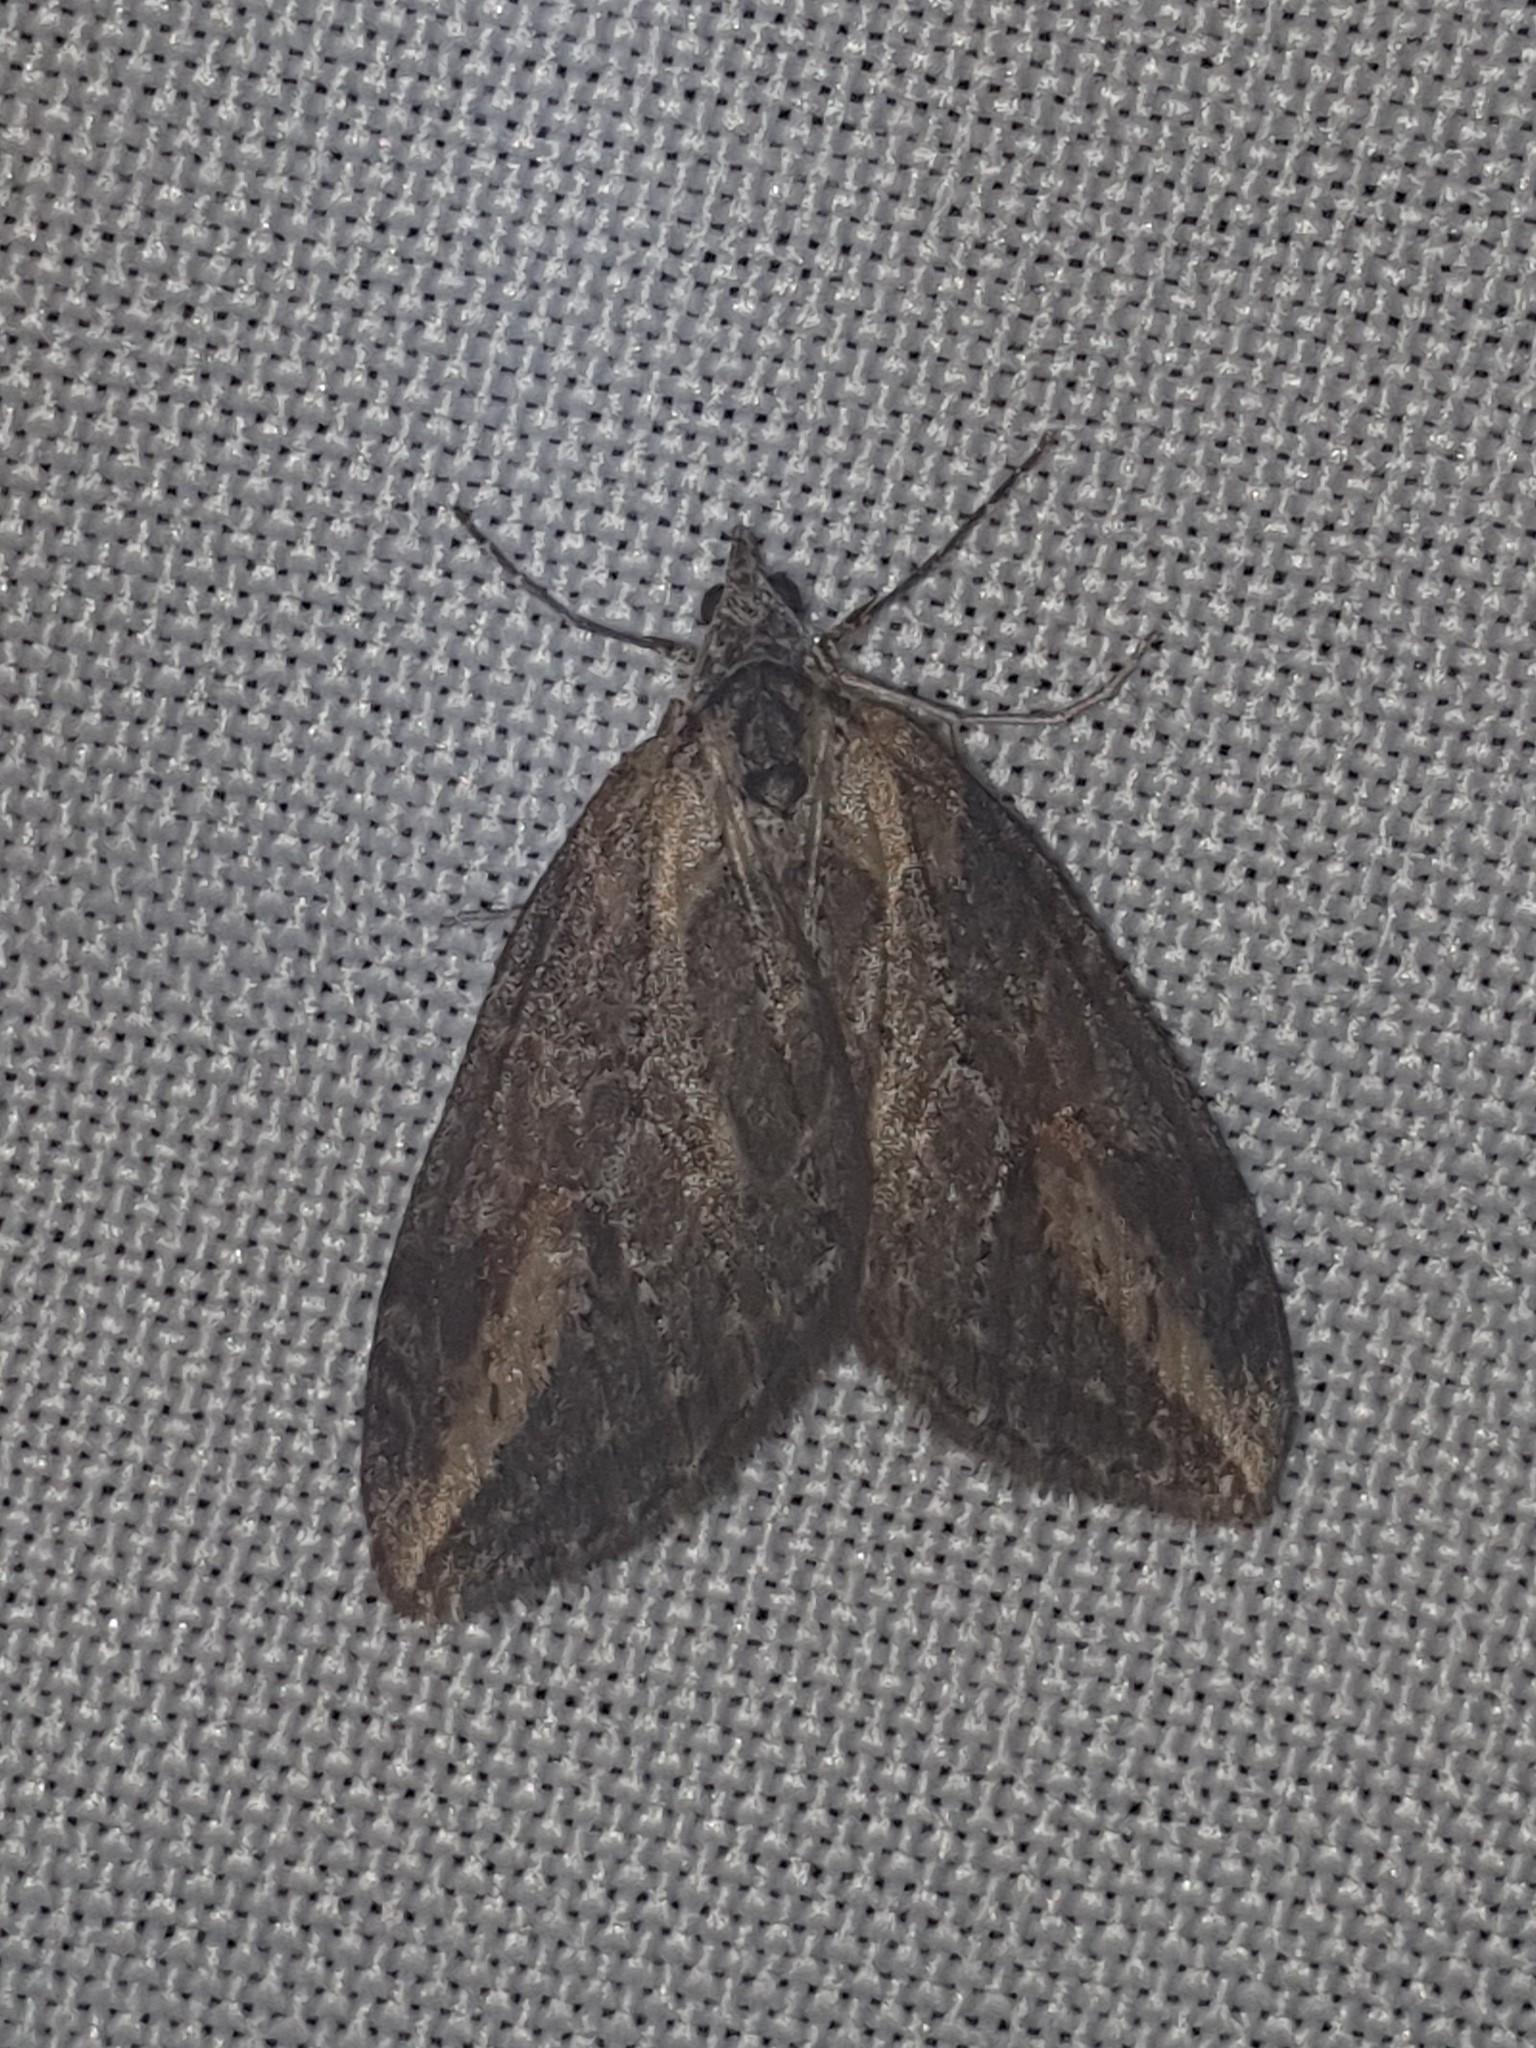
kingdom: Animalia
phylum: Arthropoda
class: Insecta
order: Lepidoptera
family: Geometridae
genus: Chesias
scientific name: Chesias isabella
